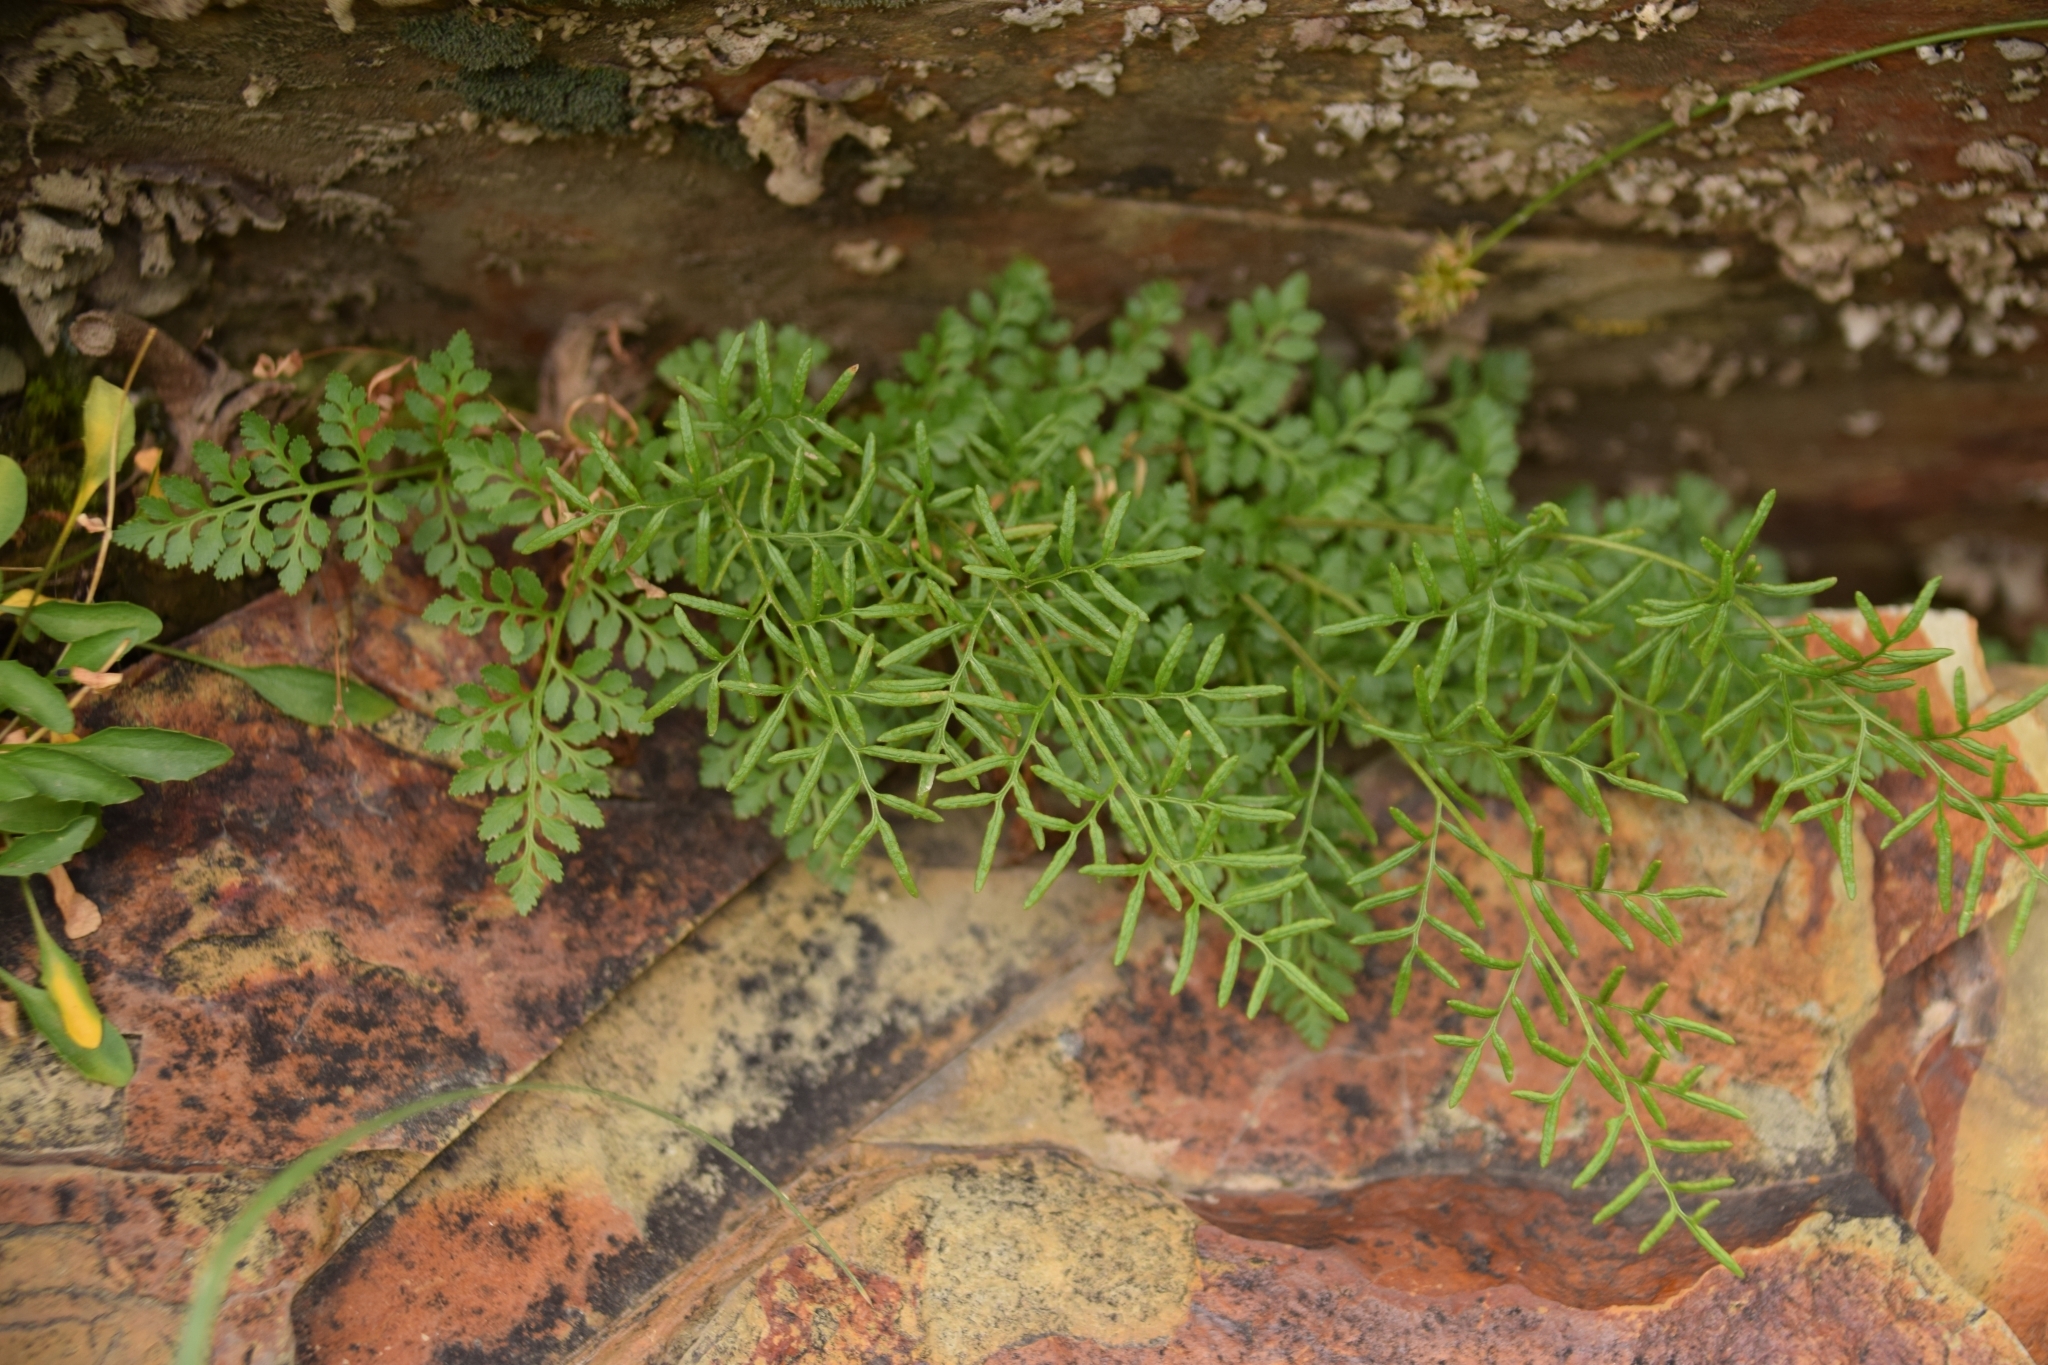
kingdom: Plantae
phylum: Tracheophyta
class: Polypodiopsida
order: Polypodiales
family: Pteridaceae
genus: Cryptogramma
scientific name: Cryptogramma acrostichoides
